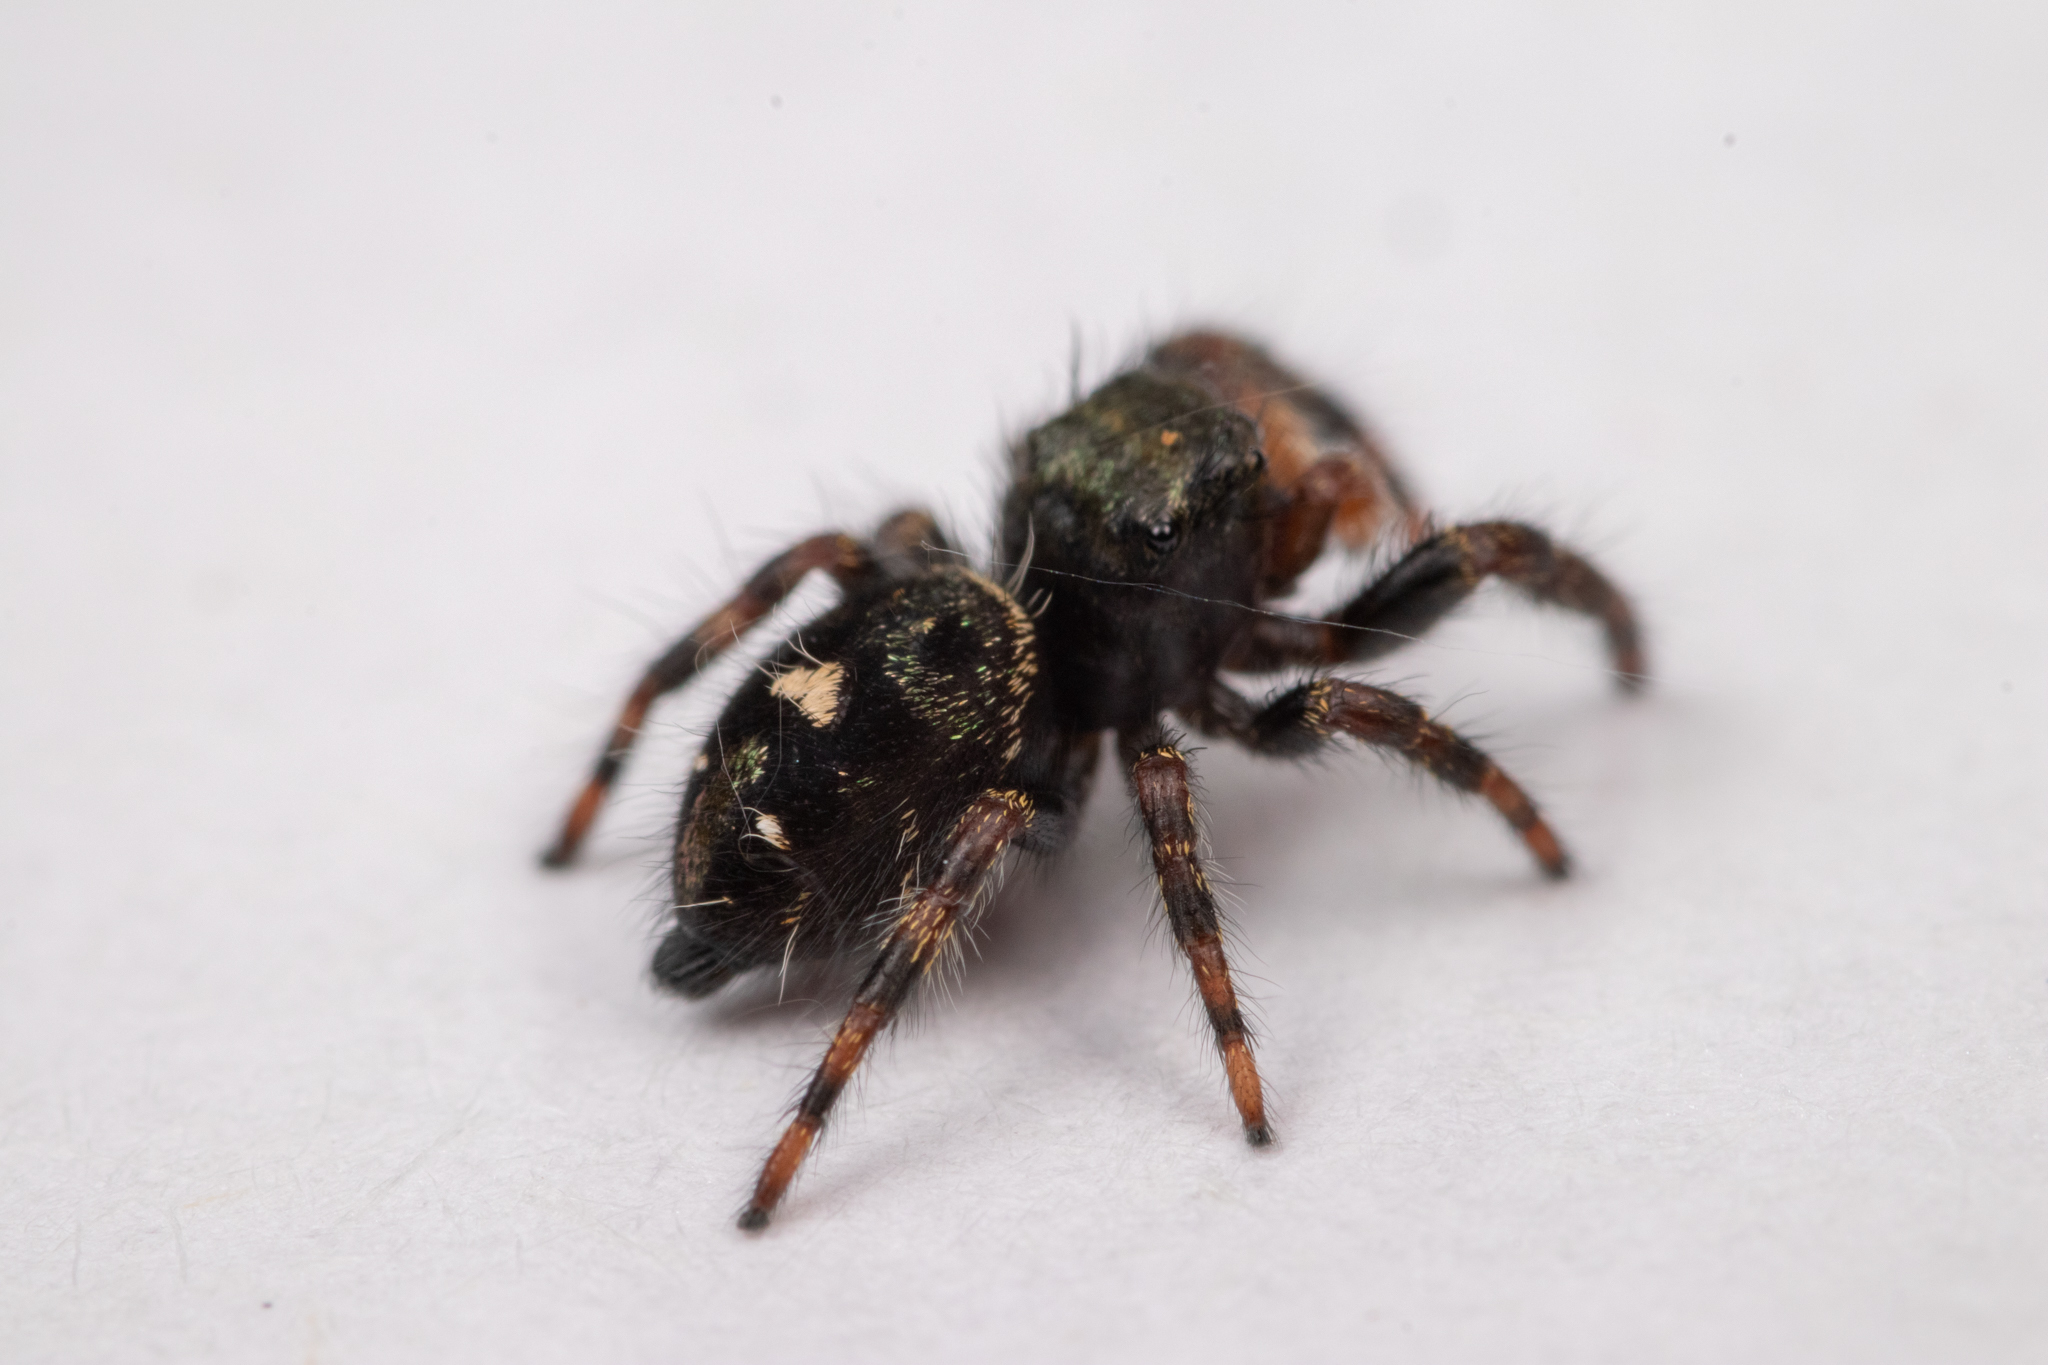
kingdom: Animalia
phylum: Arthropoda
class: Arachnida
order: Araneae
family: Salticidae
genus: Phidippus
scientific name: Phidippus audax
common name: Bold jumper
